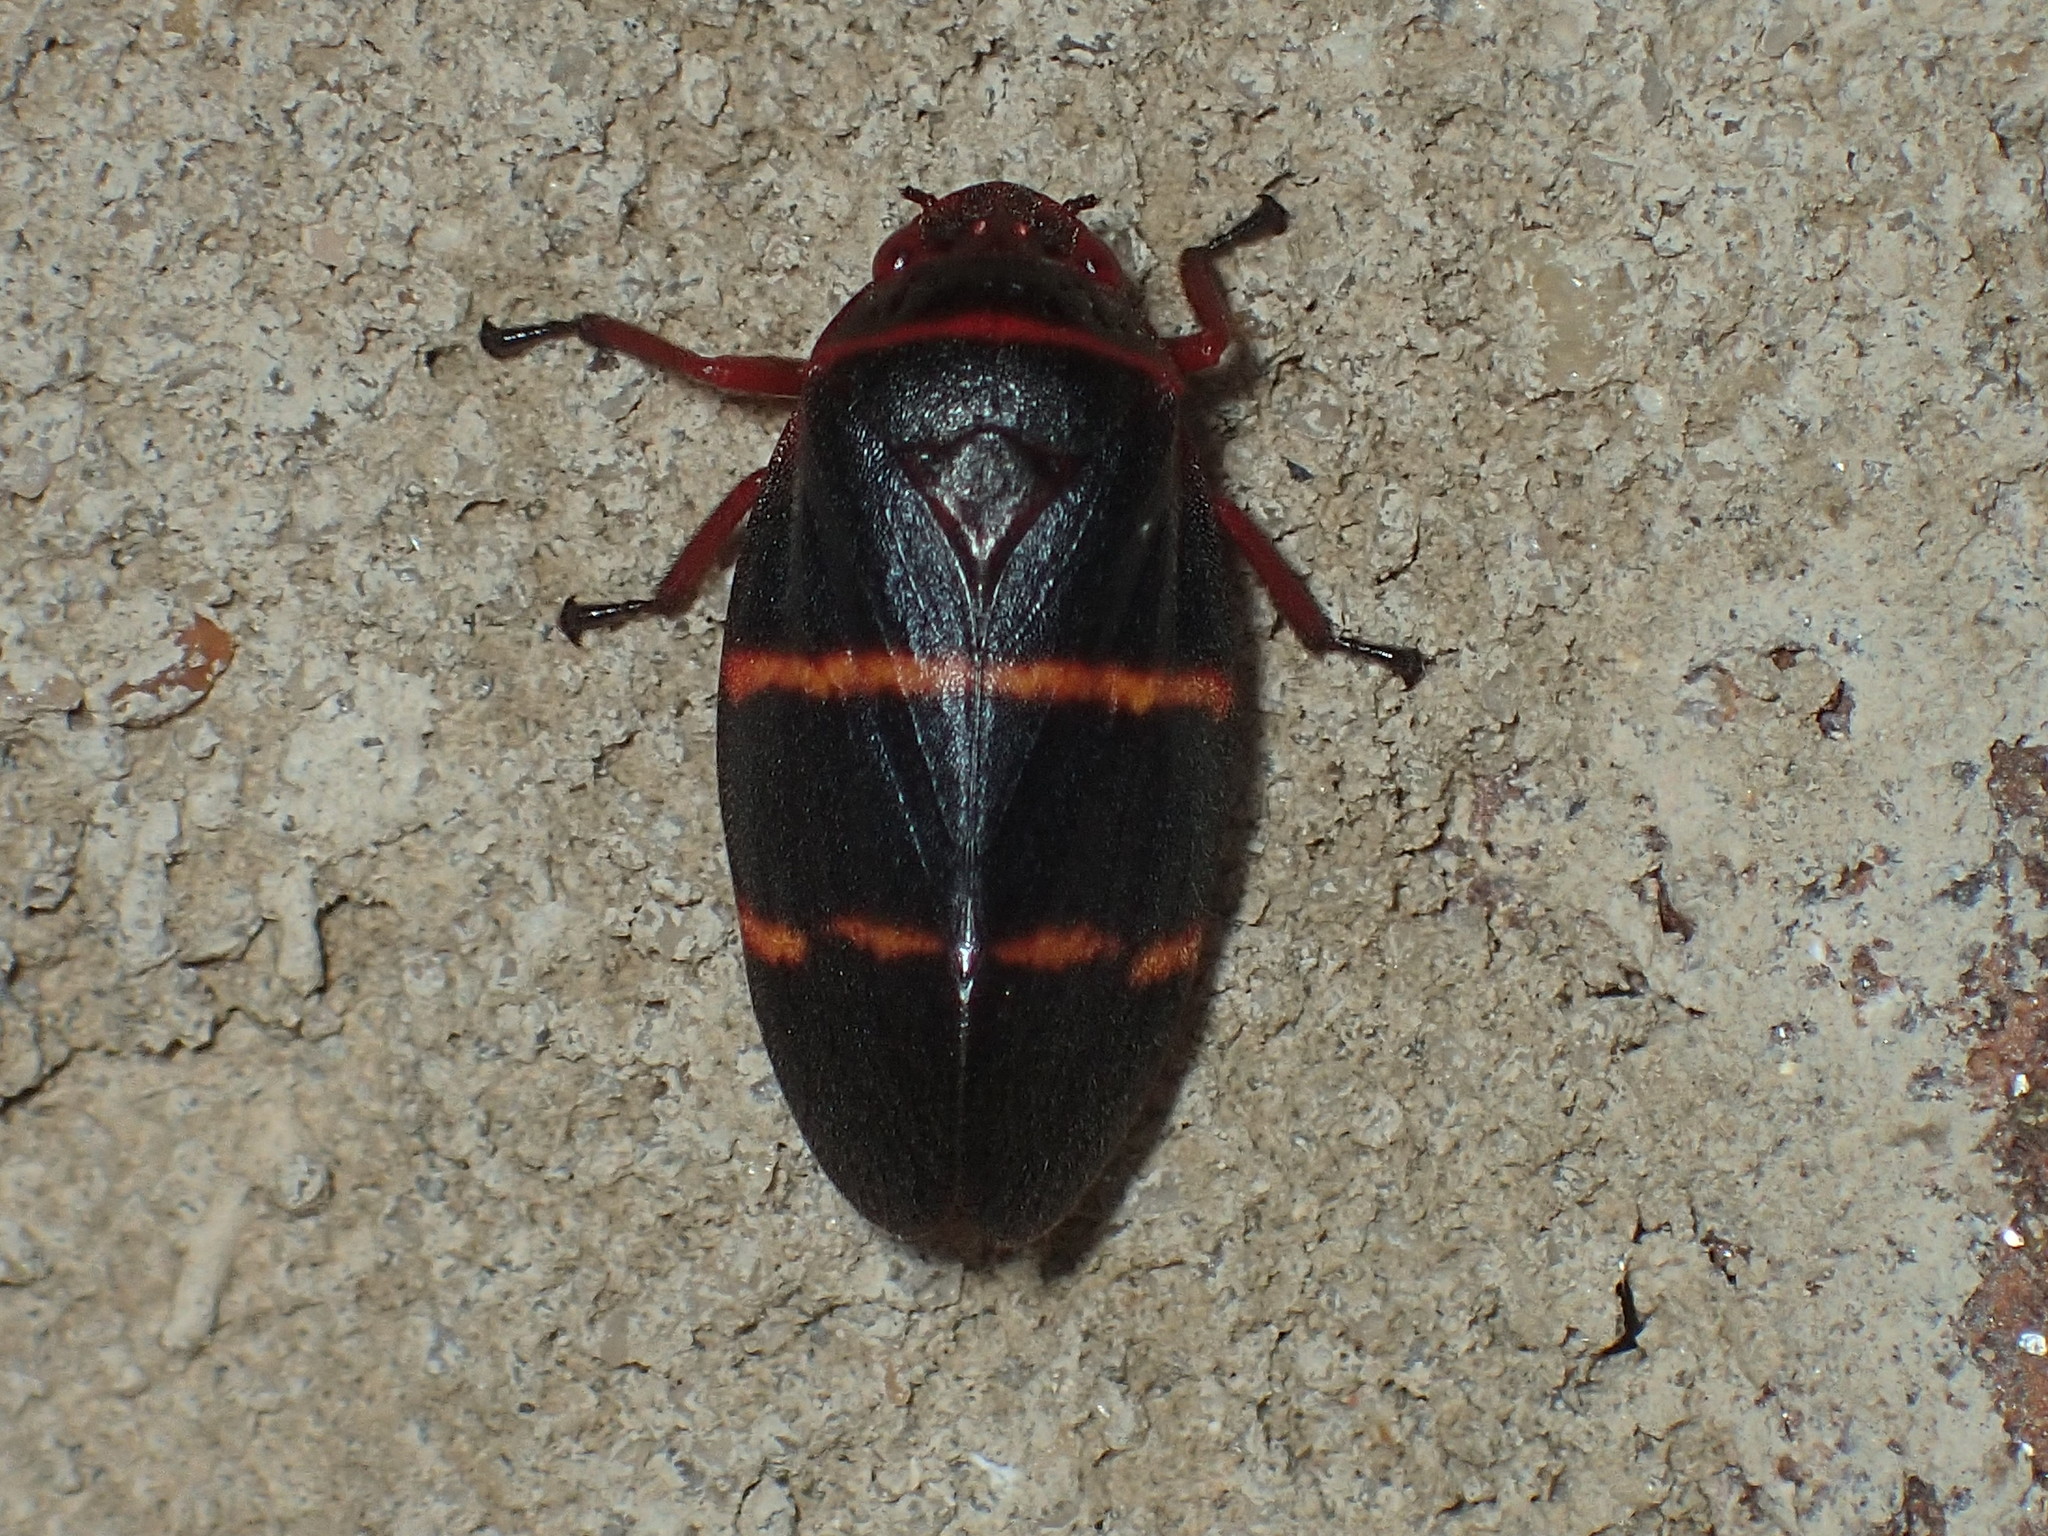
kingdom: Animalia
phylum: Arthropoda
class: Insecta
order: Hemiptera
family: Cercopidae
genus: Prosapia
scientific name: Prosapia bicincta
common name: Twolined spittlebug
